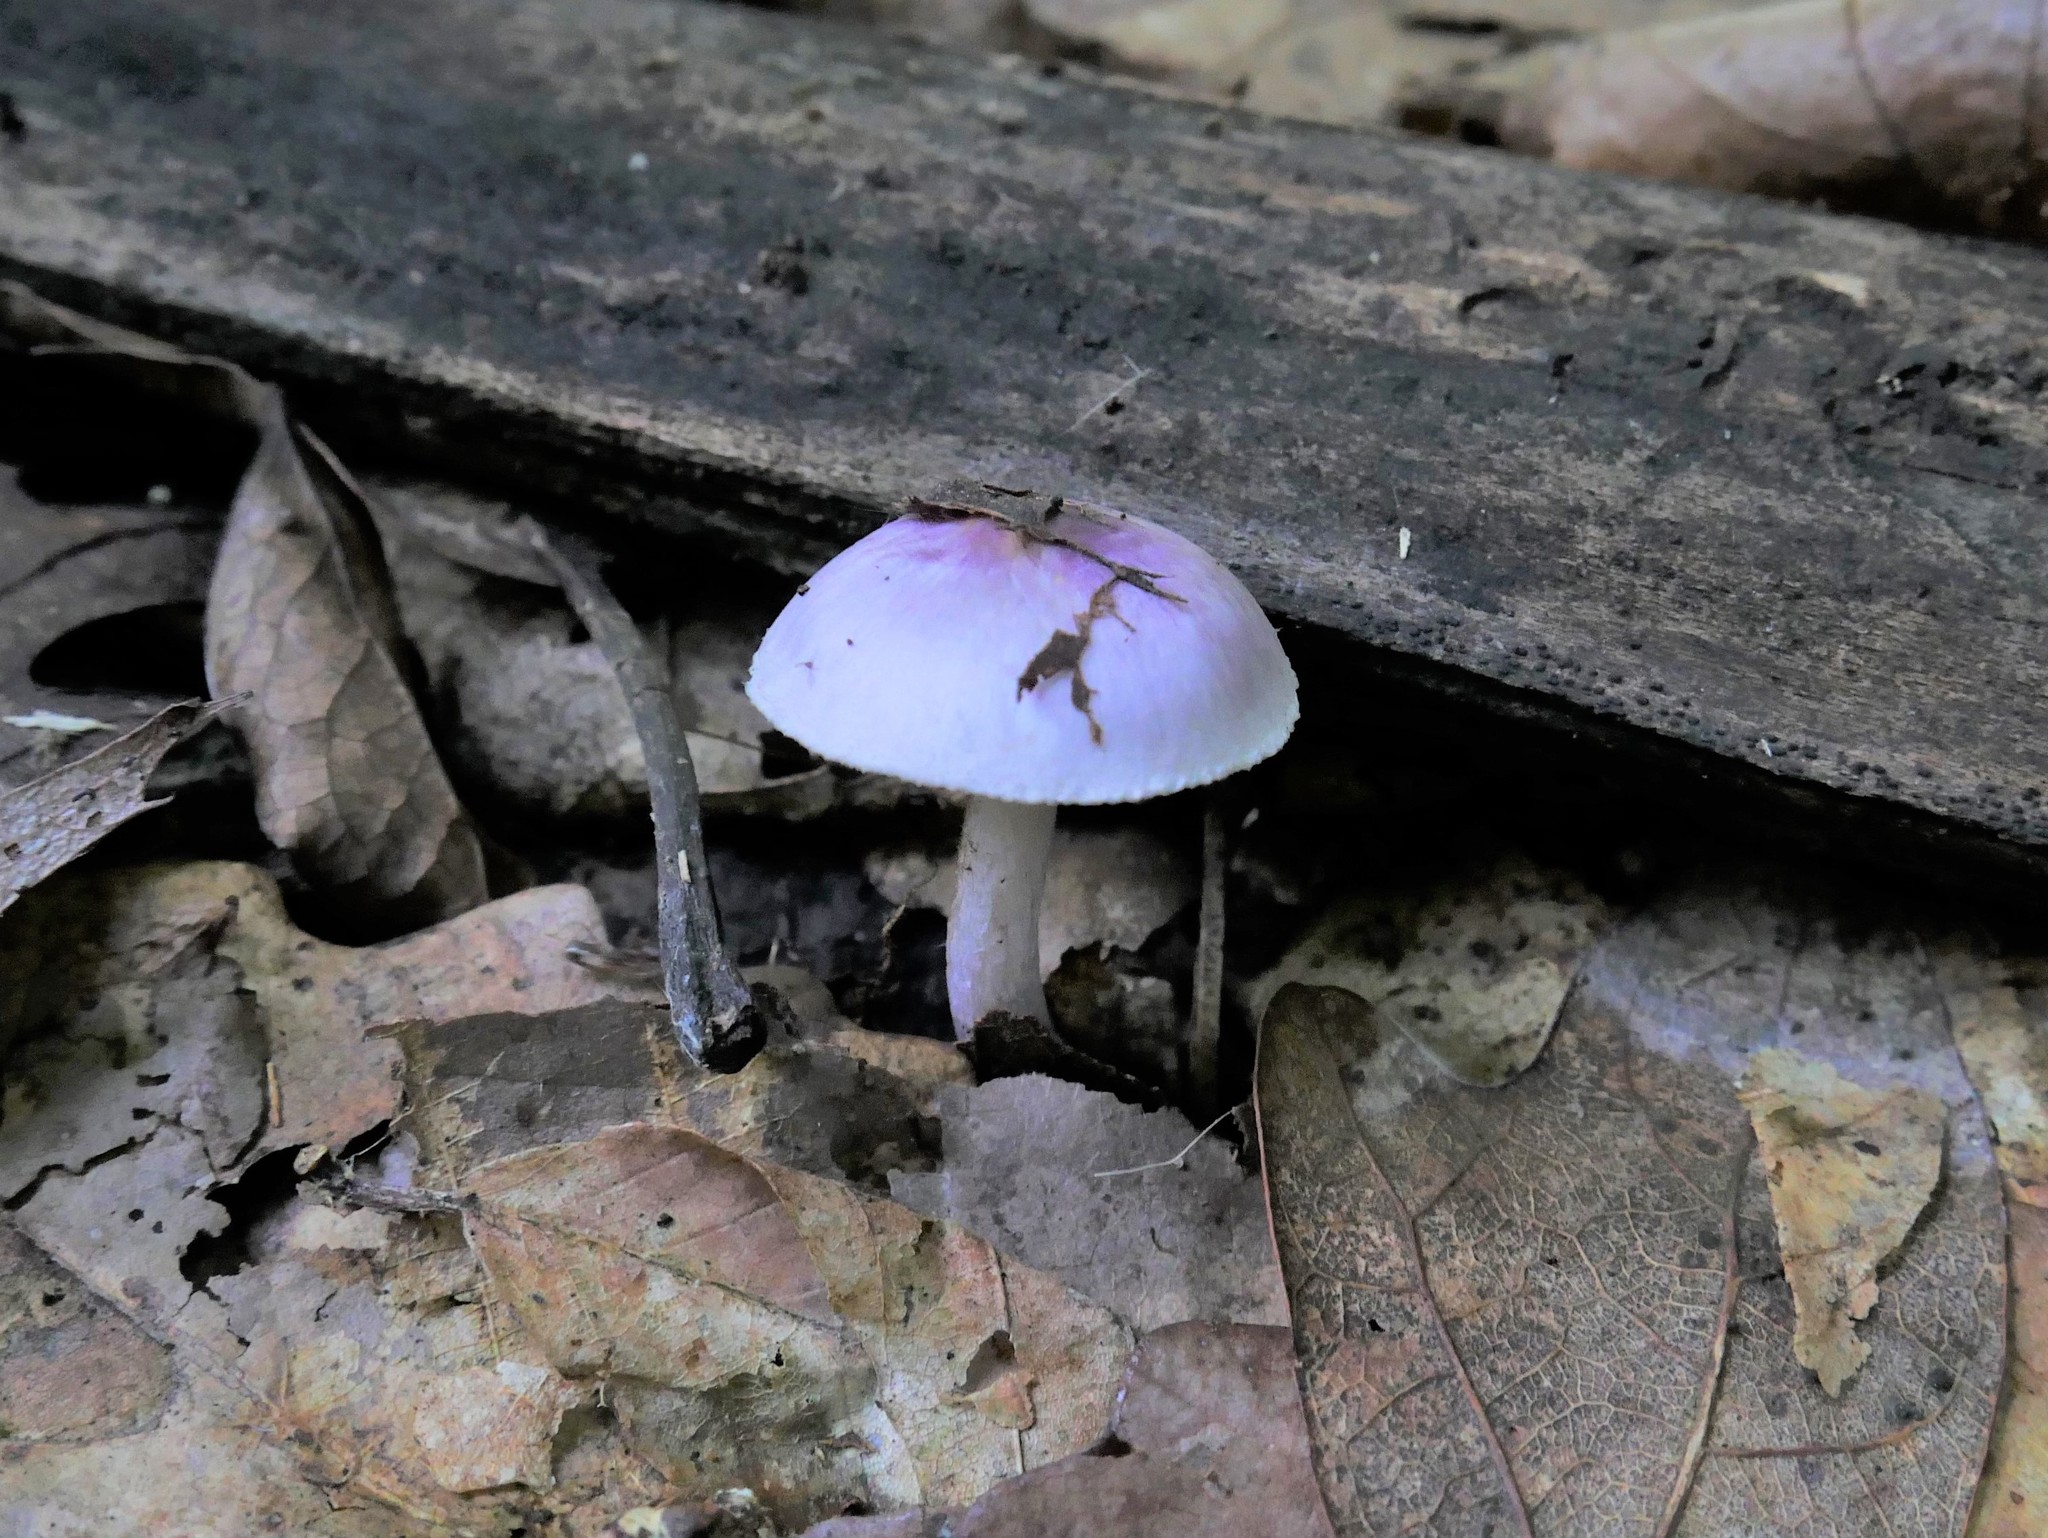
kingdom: Fungi
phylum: Basidiomycota
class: Agaricomycetes
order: Agaricales
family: Inocybaceae
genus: Inocybe
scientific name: Inocybe geophylla
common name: White fibrecap
